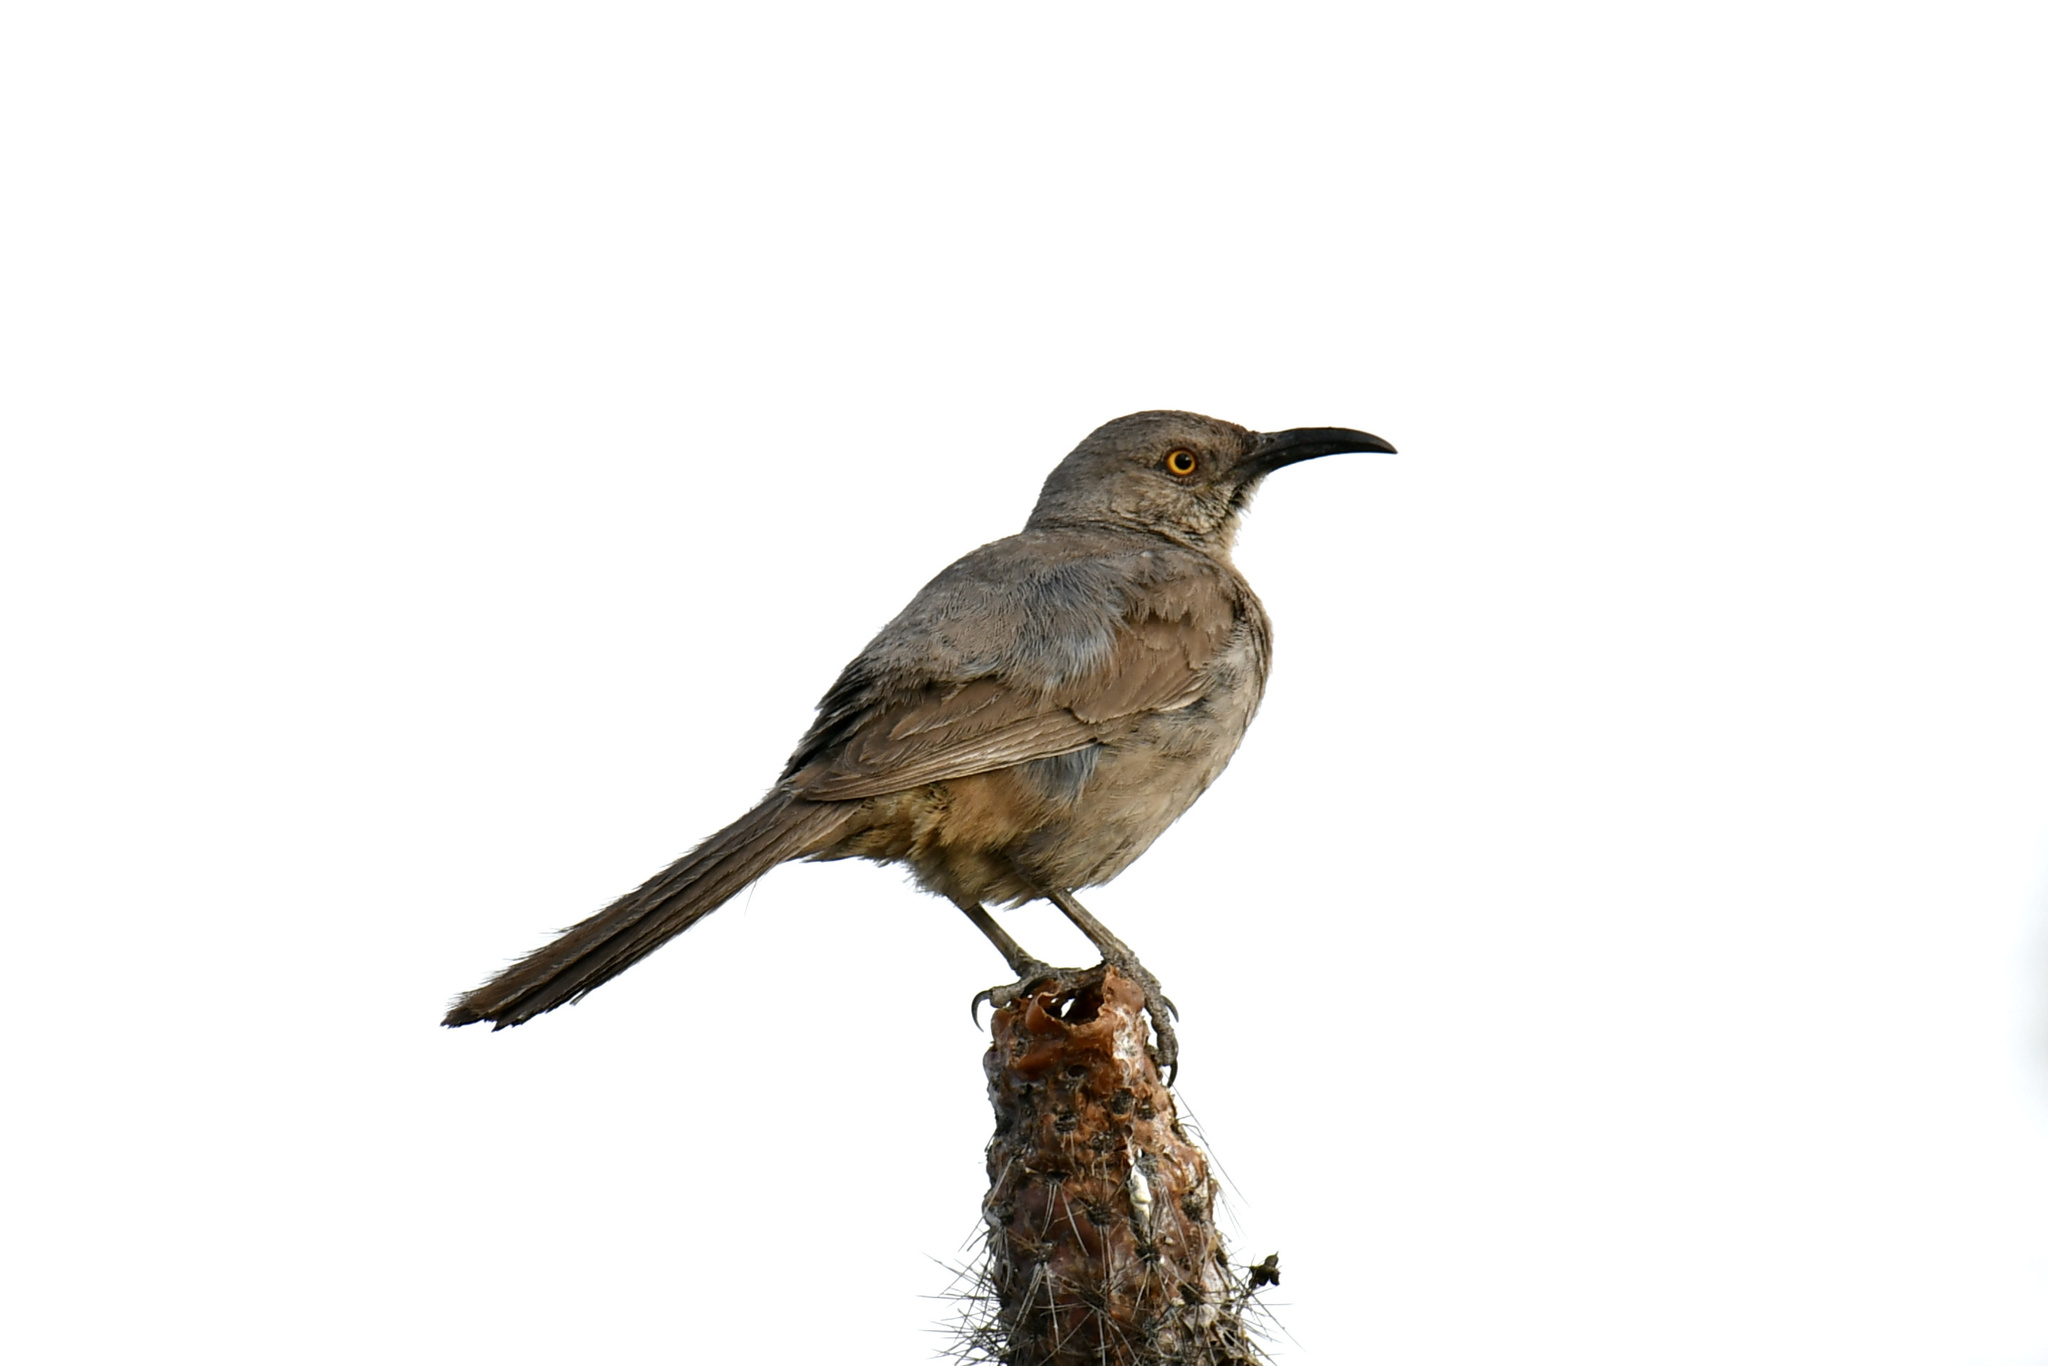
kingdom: Animalia
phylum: Chordata
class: Aves
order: Passeriformes
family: Mimidae
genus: Toxostoma
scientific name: Toxostoma curvirostre
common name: Curve-billed thrasher
